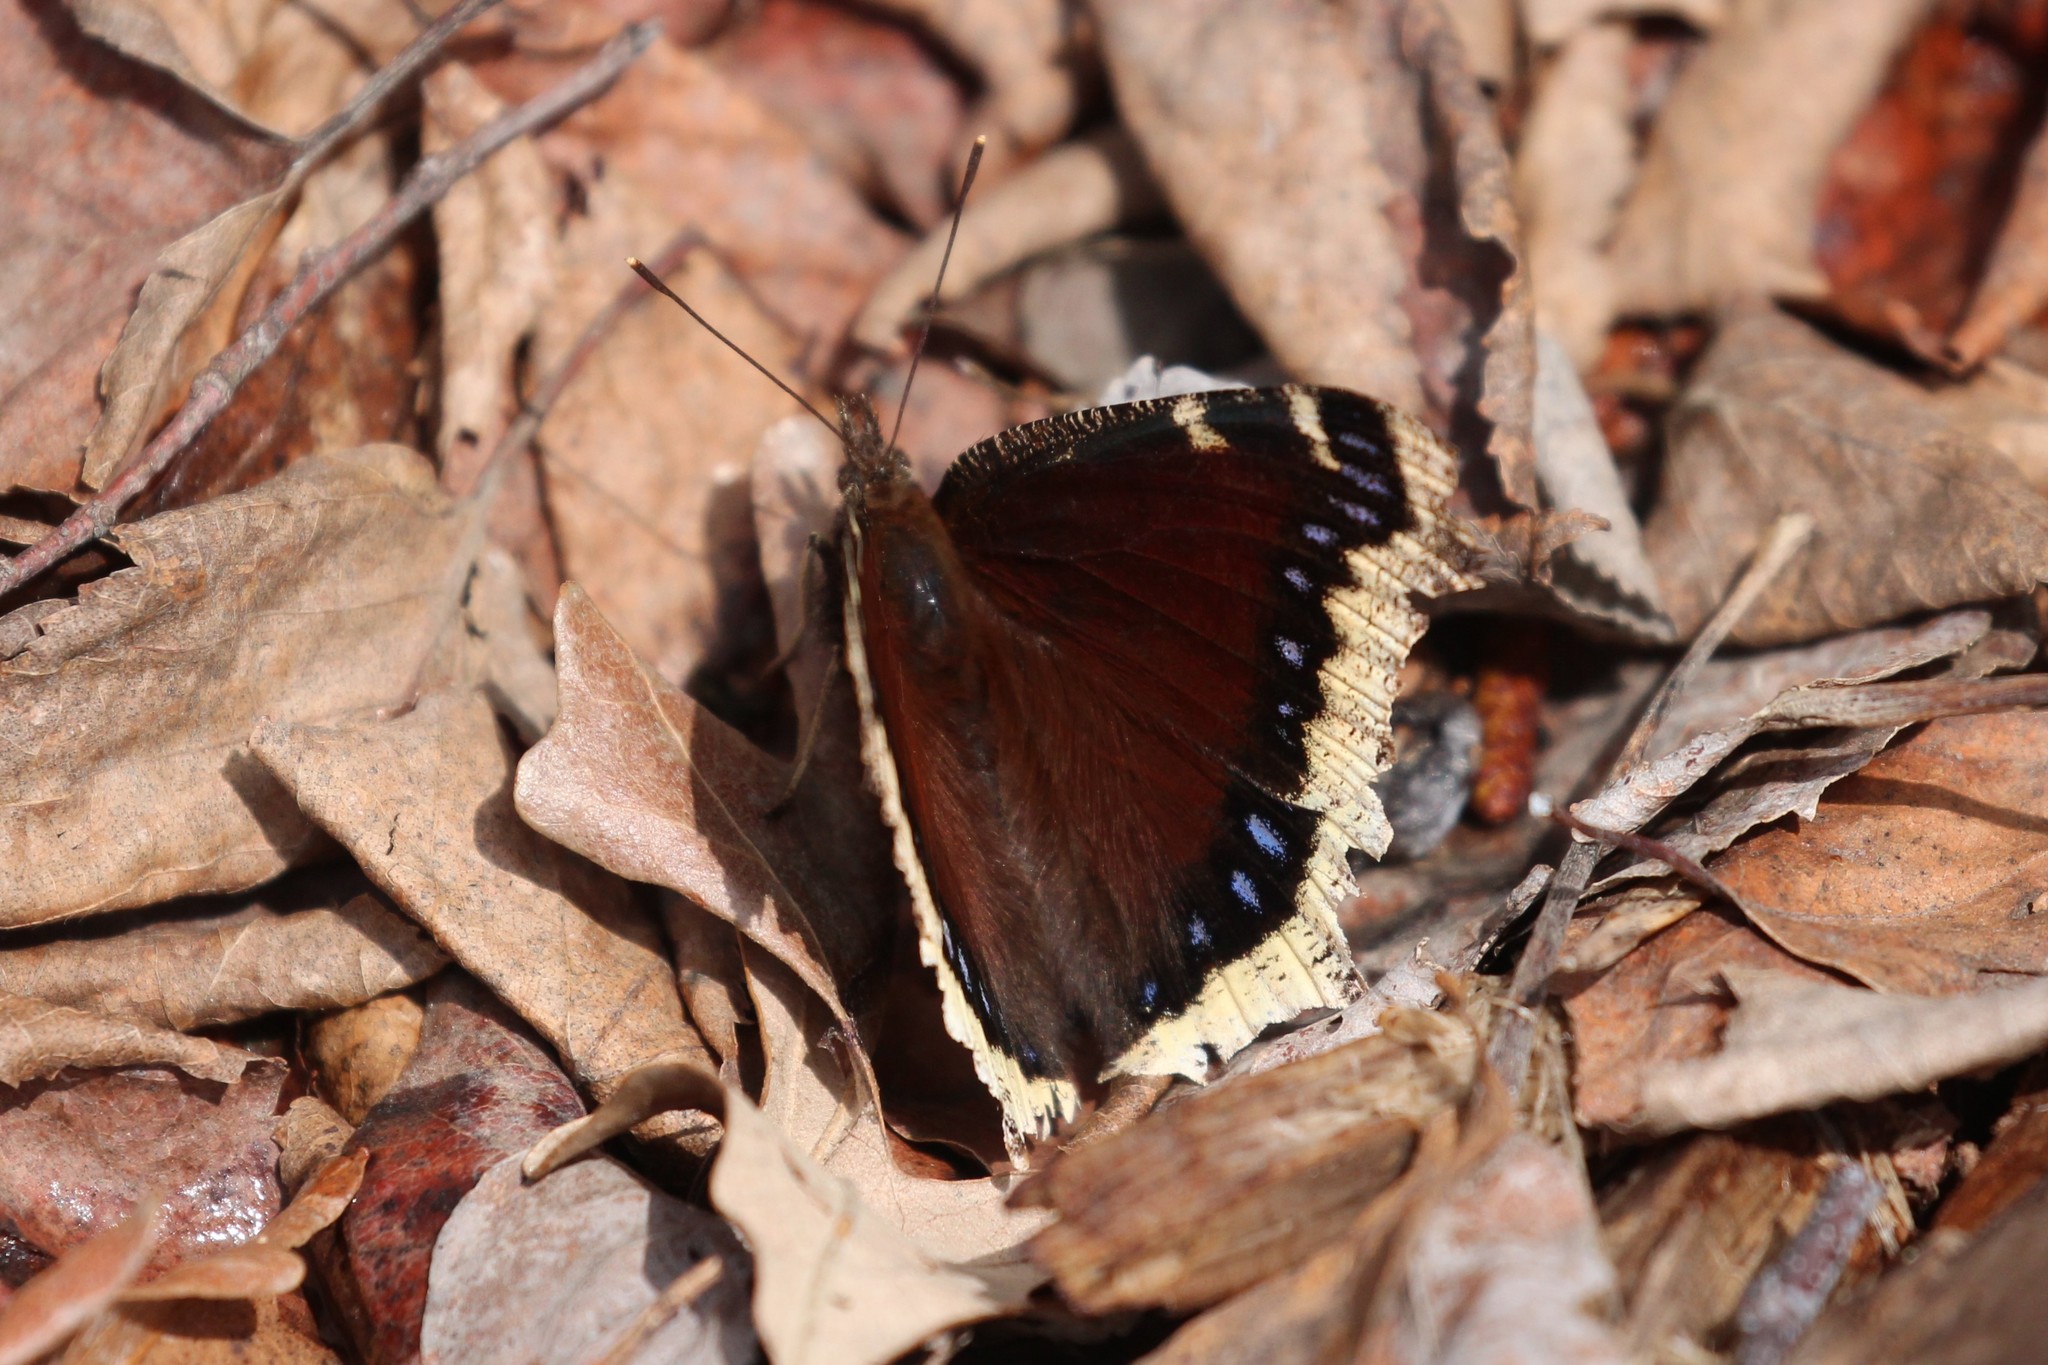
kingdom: Animalia
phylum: Arthropoda
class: Insecta
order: Lepidoptera
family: Nymphalidae
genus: Nymphalis
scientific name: Nymphalis antiopa
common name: Camberwell beauty
